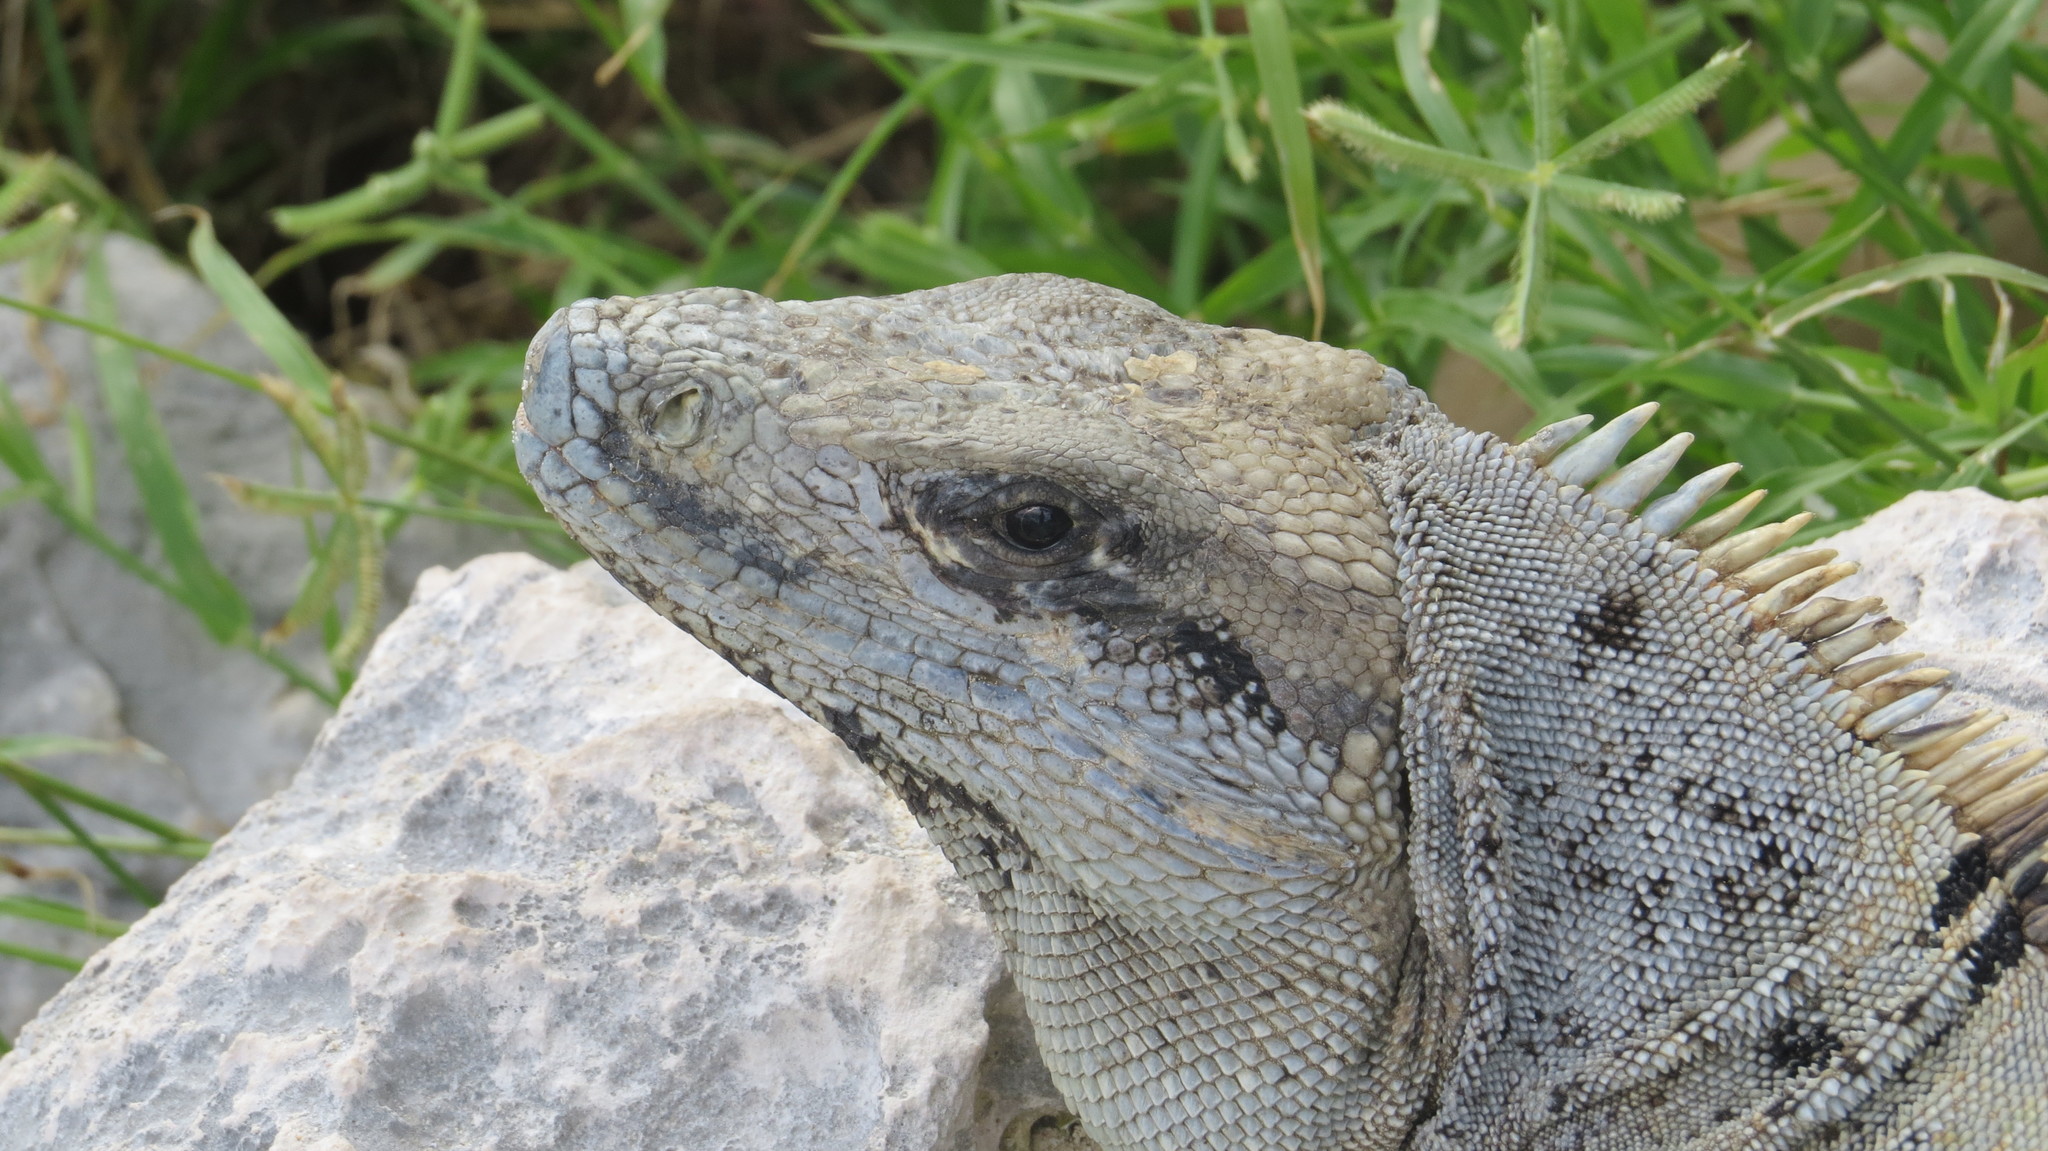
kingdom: Animalia
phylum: Chordata
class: Squamata
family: Iguanidae
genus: Ctenosaura
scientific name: Ctenosaura similis
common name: Black spiny-tailed iguana
